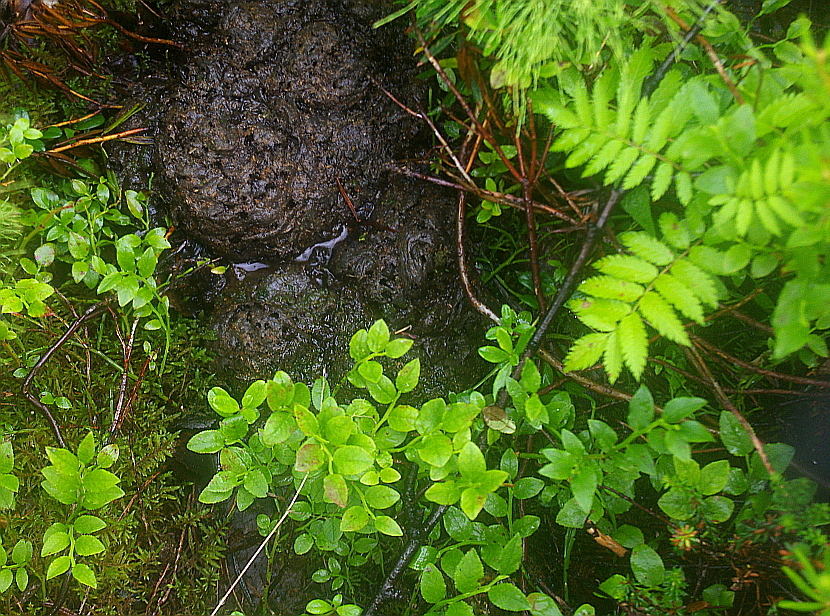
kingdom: Plantae
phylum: Tracheophyta
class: Magnoliopsida
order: Rosales
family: Rosaceae
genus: Sorbus
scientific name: Sorbus aucuparia
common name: Rowan
